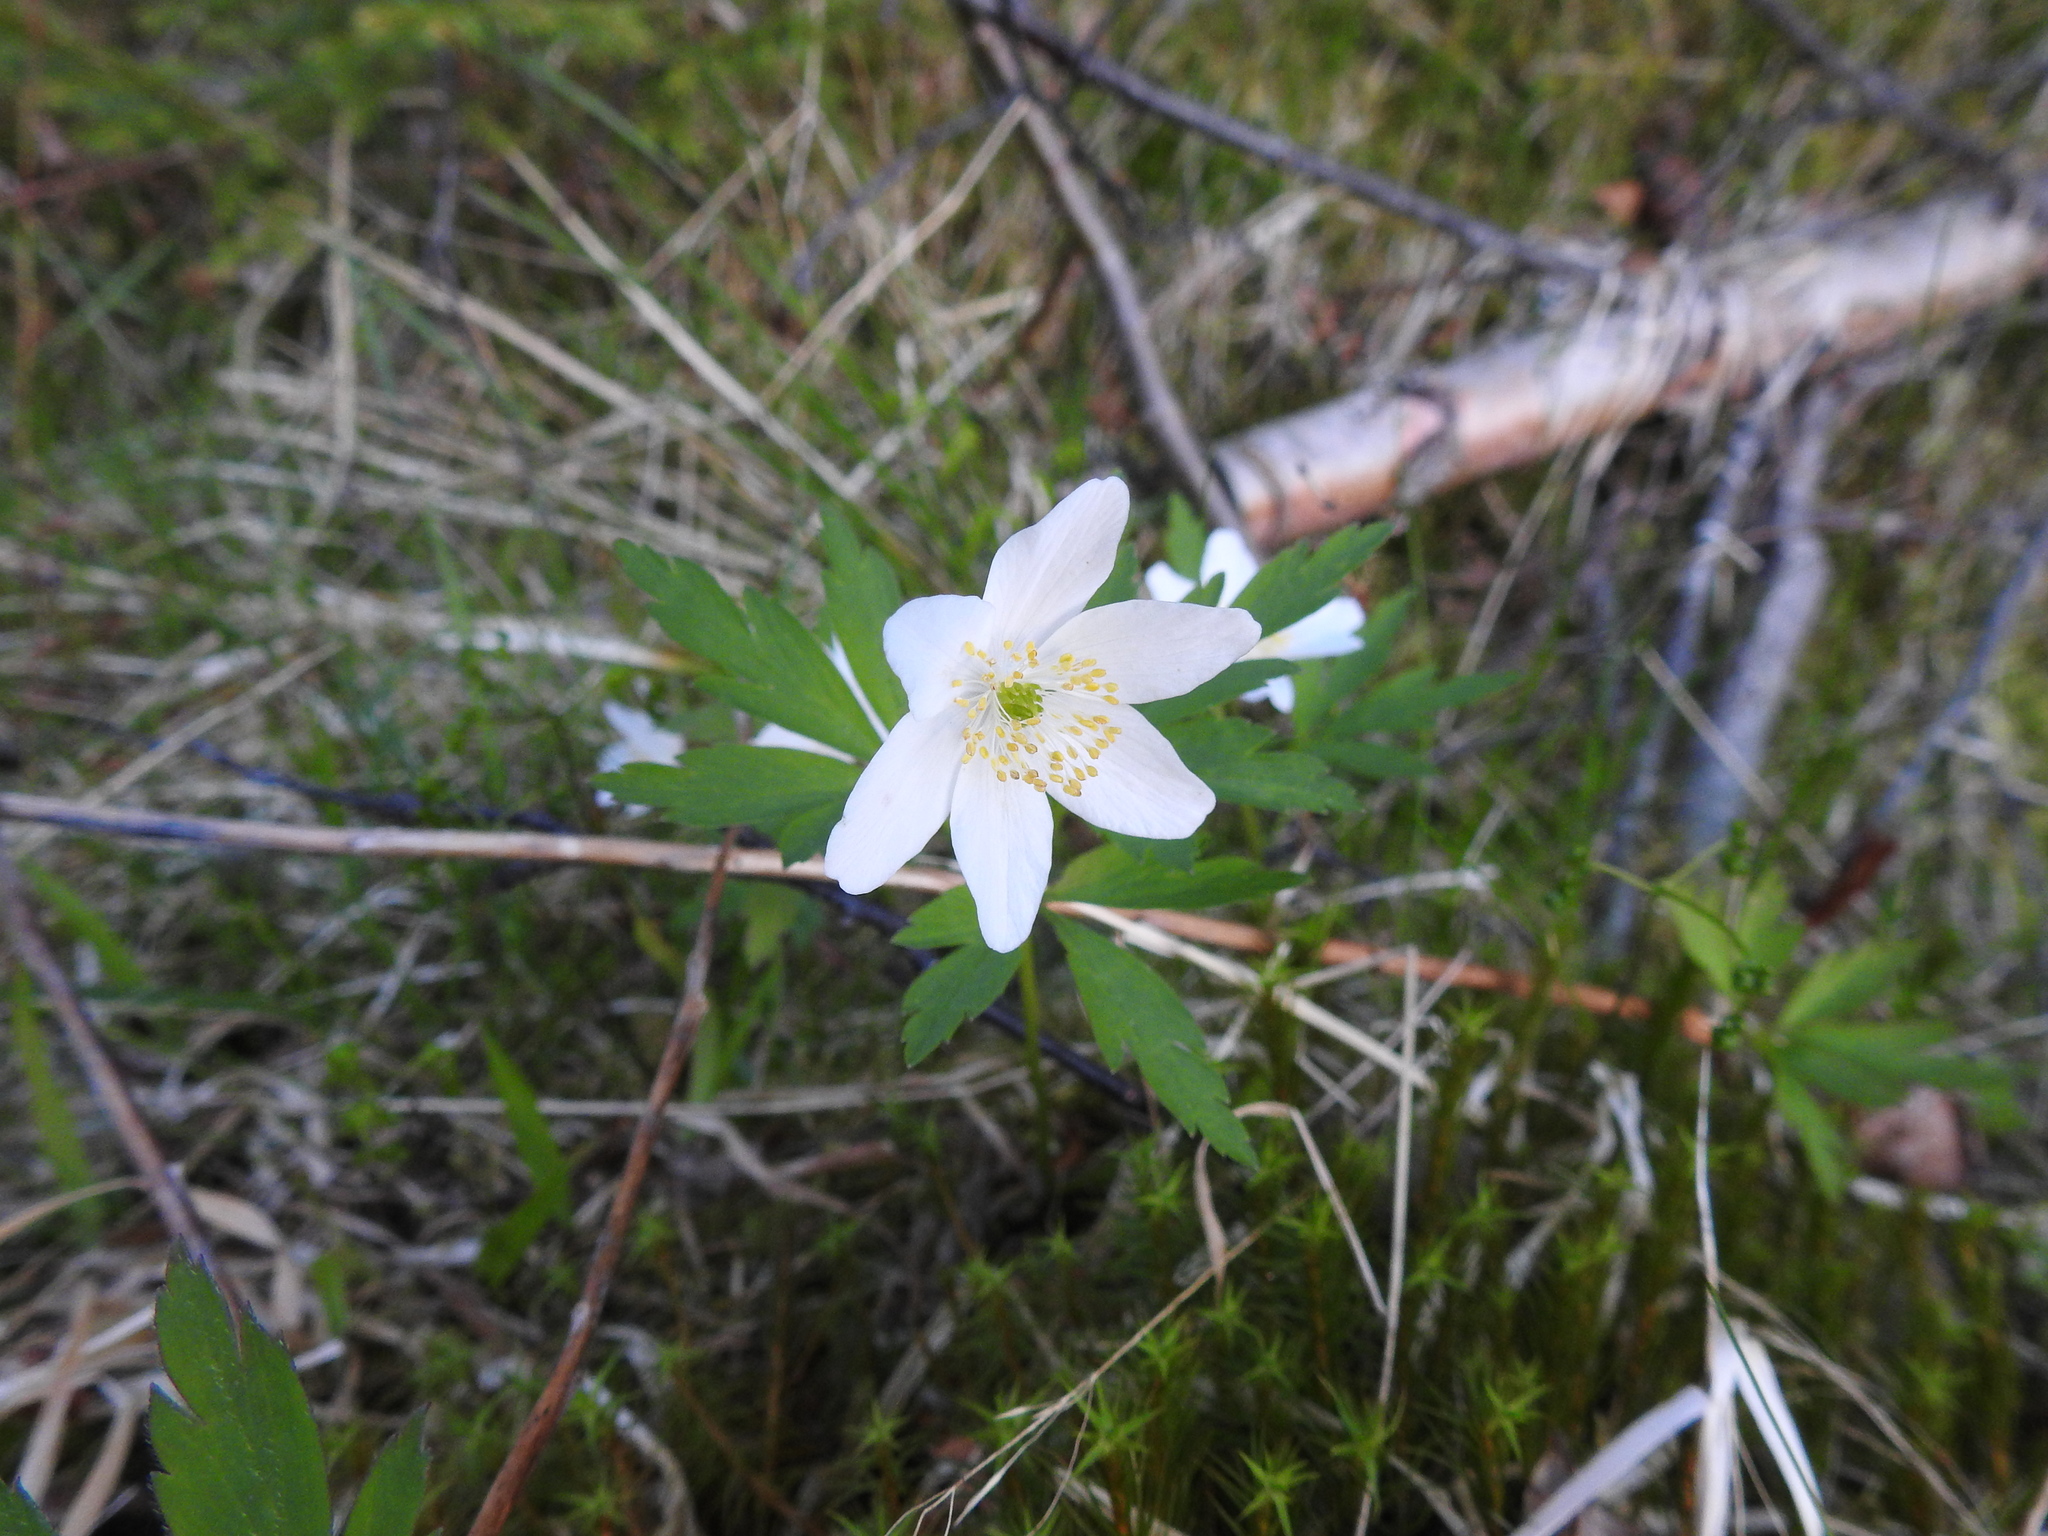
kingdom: Plantae
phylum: Tracheophyta
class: Magnoliopsida
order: Ranunculales
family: Ranunculaceae
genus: Anemone
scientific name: Anemone nemorosa
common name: Wood anemone
